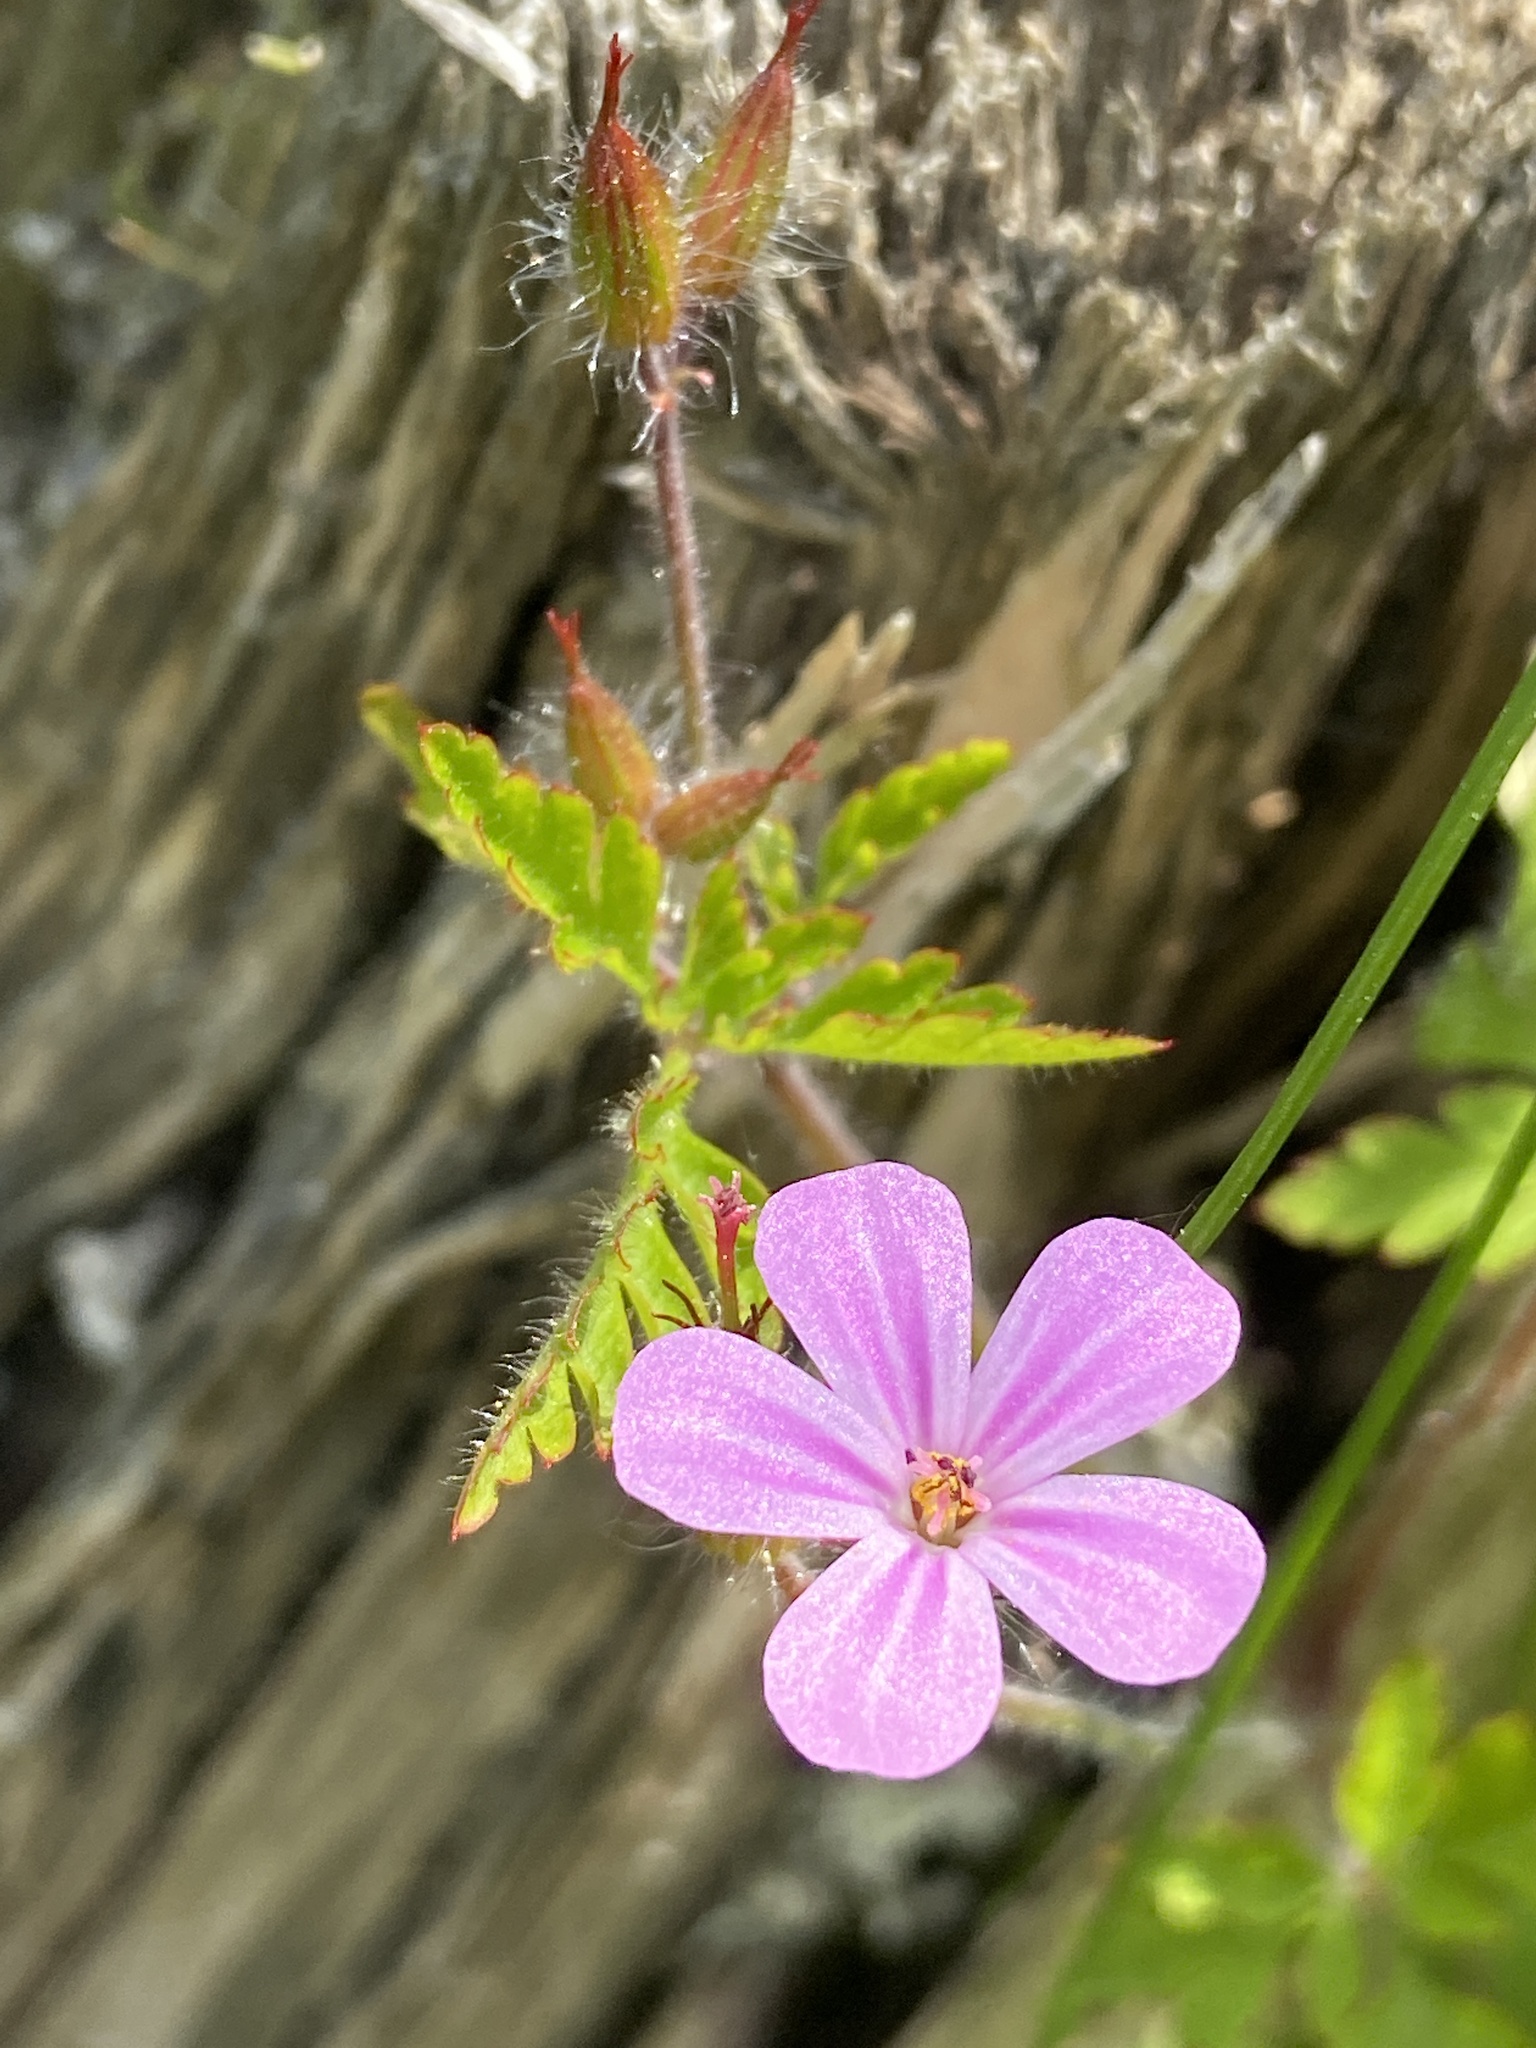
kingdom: Plantae
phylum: Tracheophyta
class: Magnoliopsida
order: Geraniales
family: Geraniaceae
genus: Geranium
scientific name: Geranium robertianum
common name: Herb-robert
